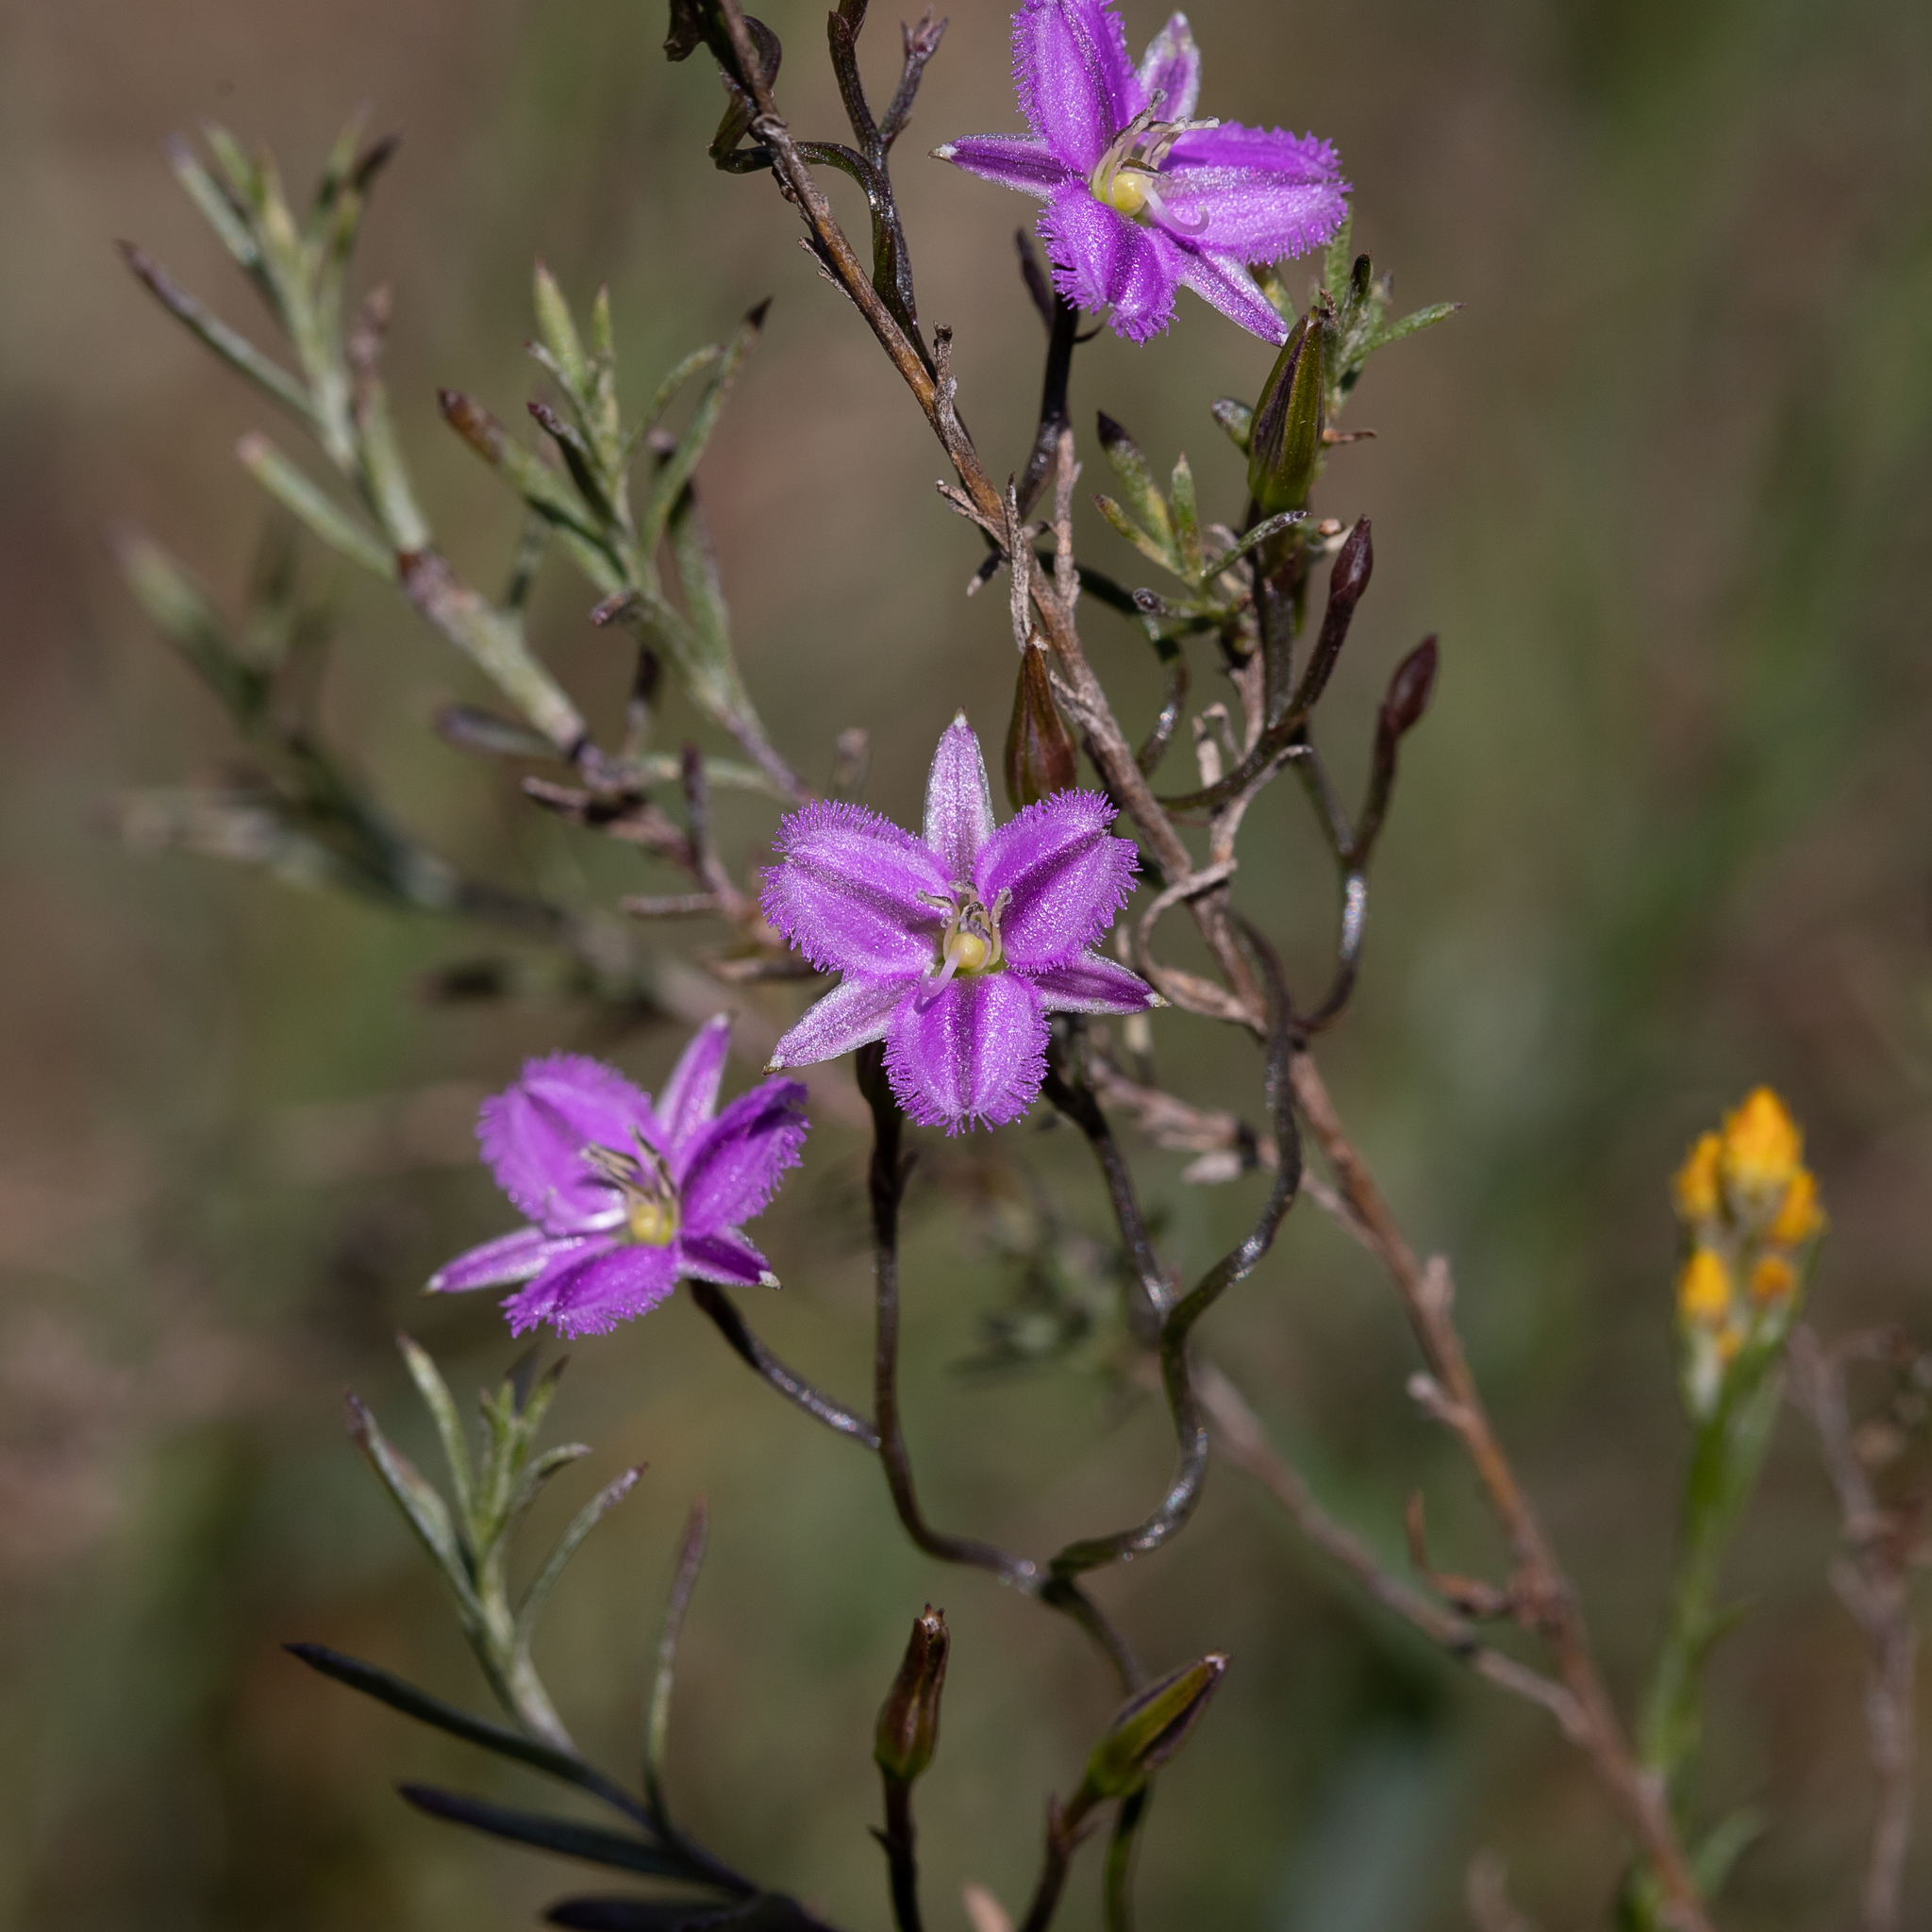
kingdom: Plantae
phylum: Tracheophyta
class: Liliopsida
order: Asparagales
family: Asparagaceae
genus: Thysanotus
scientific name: Thysanotus patersonii
